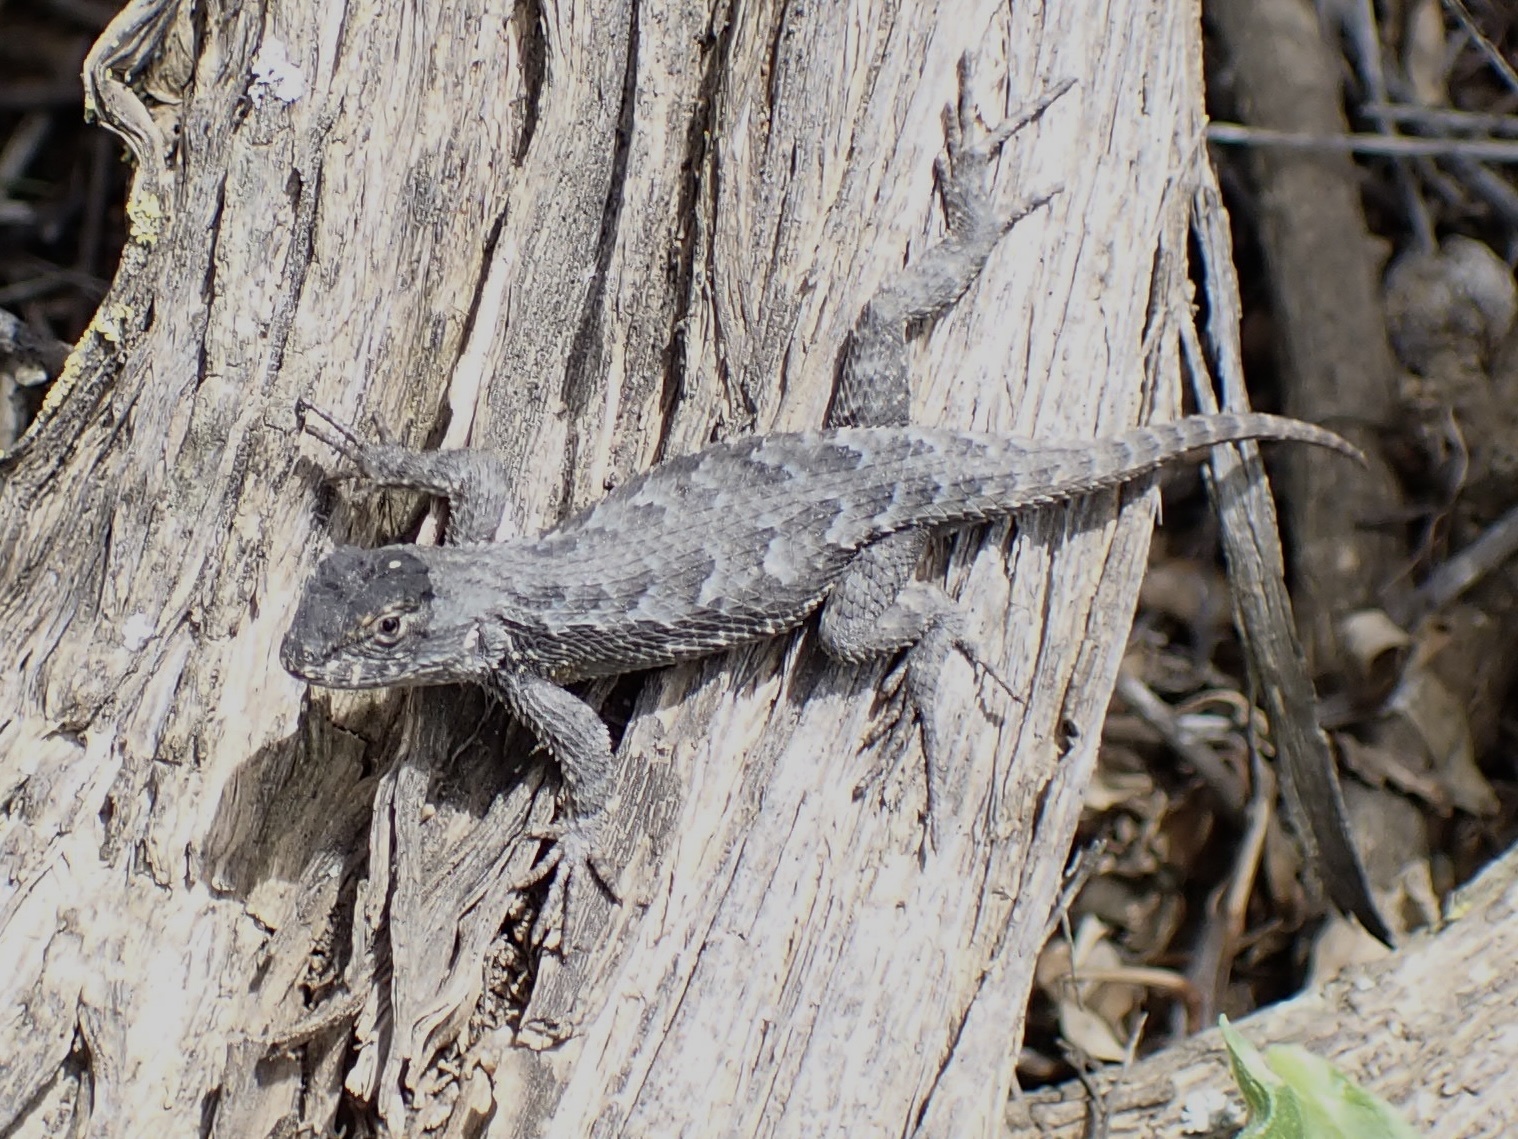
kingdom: Animalia
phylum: Chordata
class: Squamata
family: Phrynosomatidae
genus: Sceloporus
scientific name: Sceloporus occidentalis
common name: Western fence lizard
